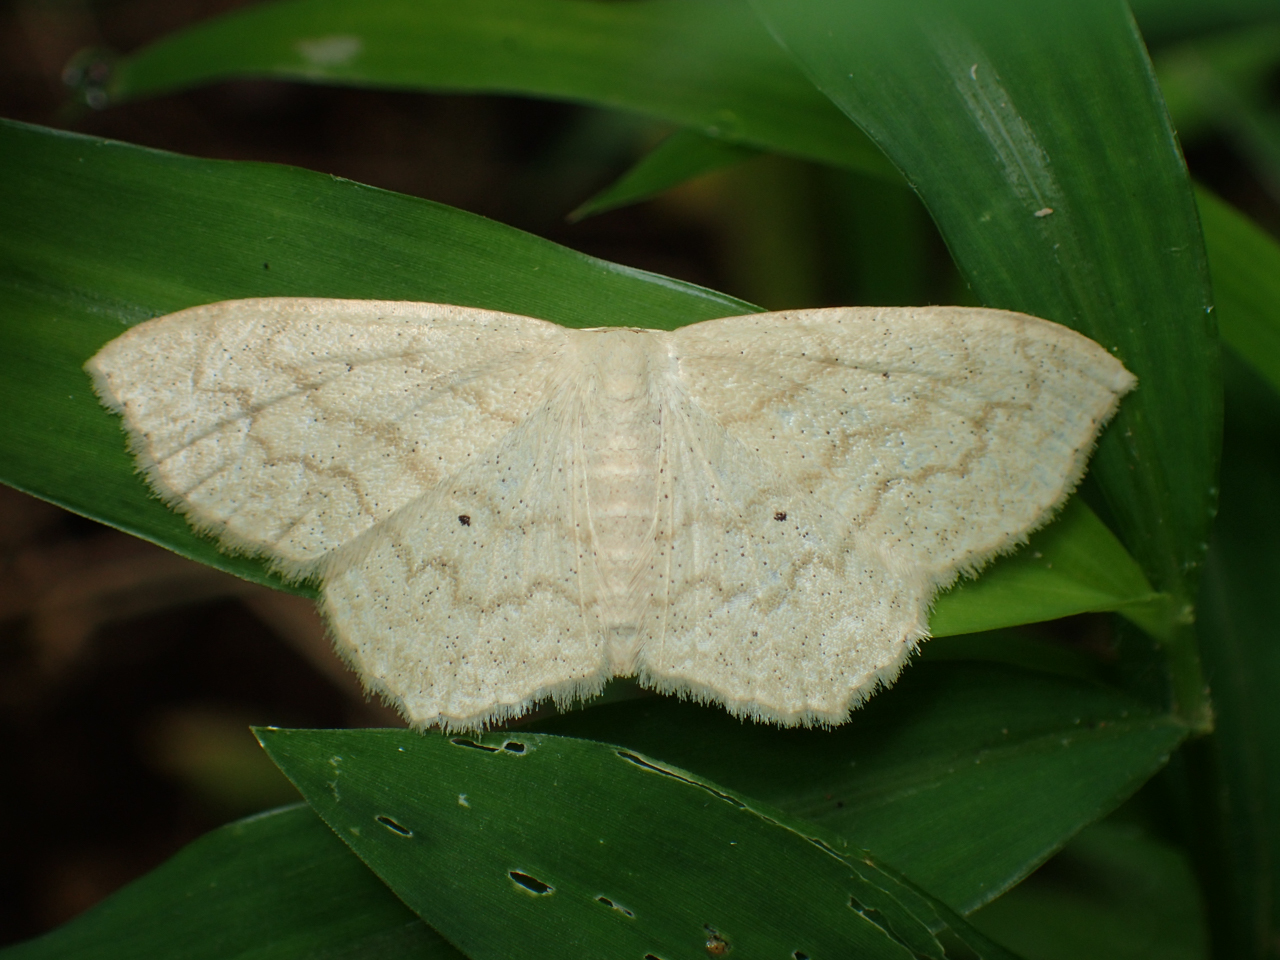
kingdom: Animalia
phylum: Arthropoda
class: Insecta
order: Lepidoptera
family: Geometridae
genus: Scopula
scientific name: Scopula limboundata
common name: Large lace border
